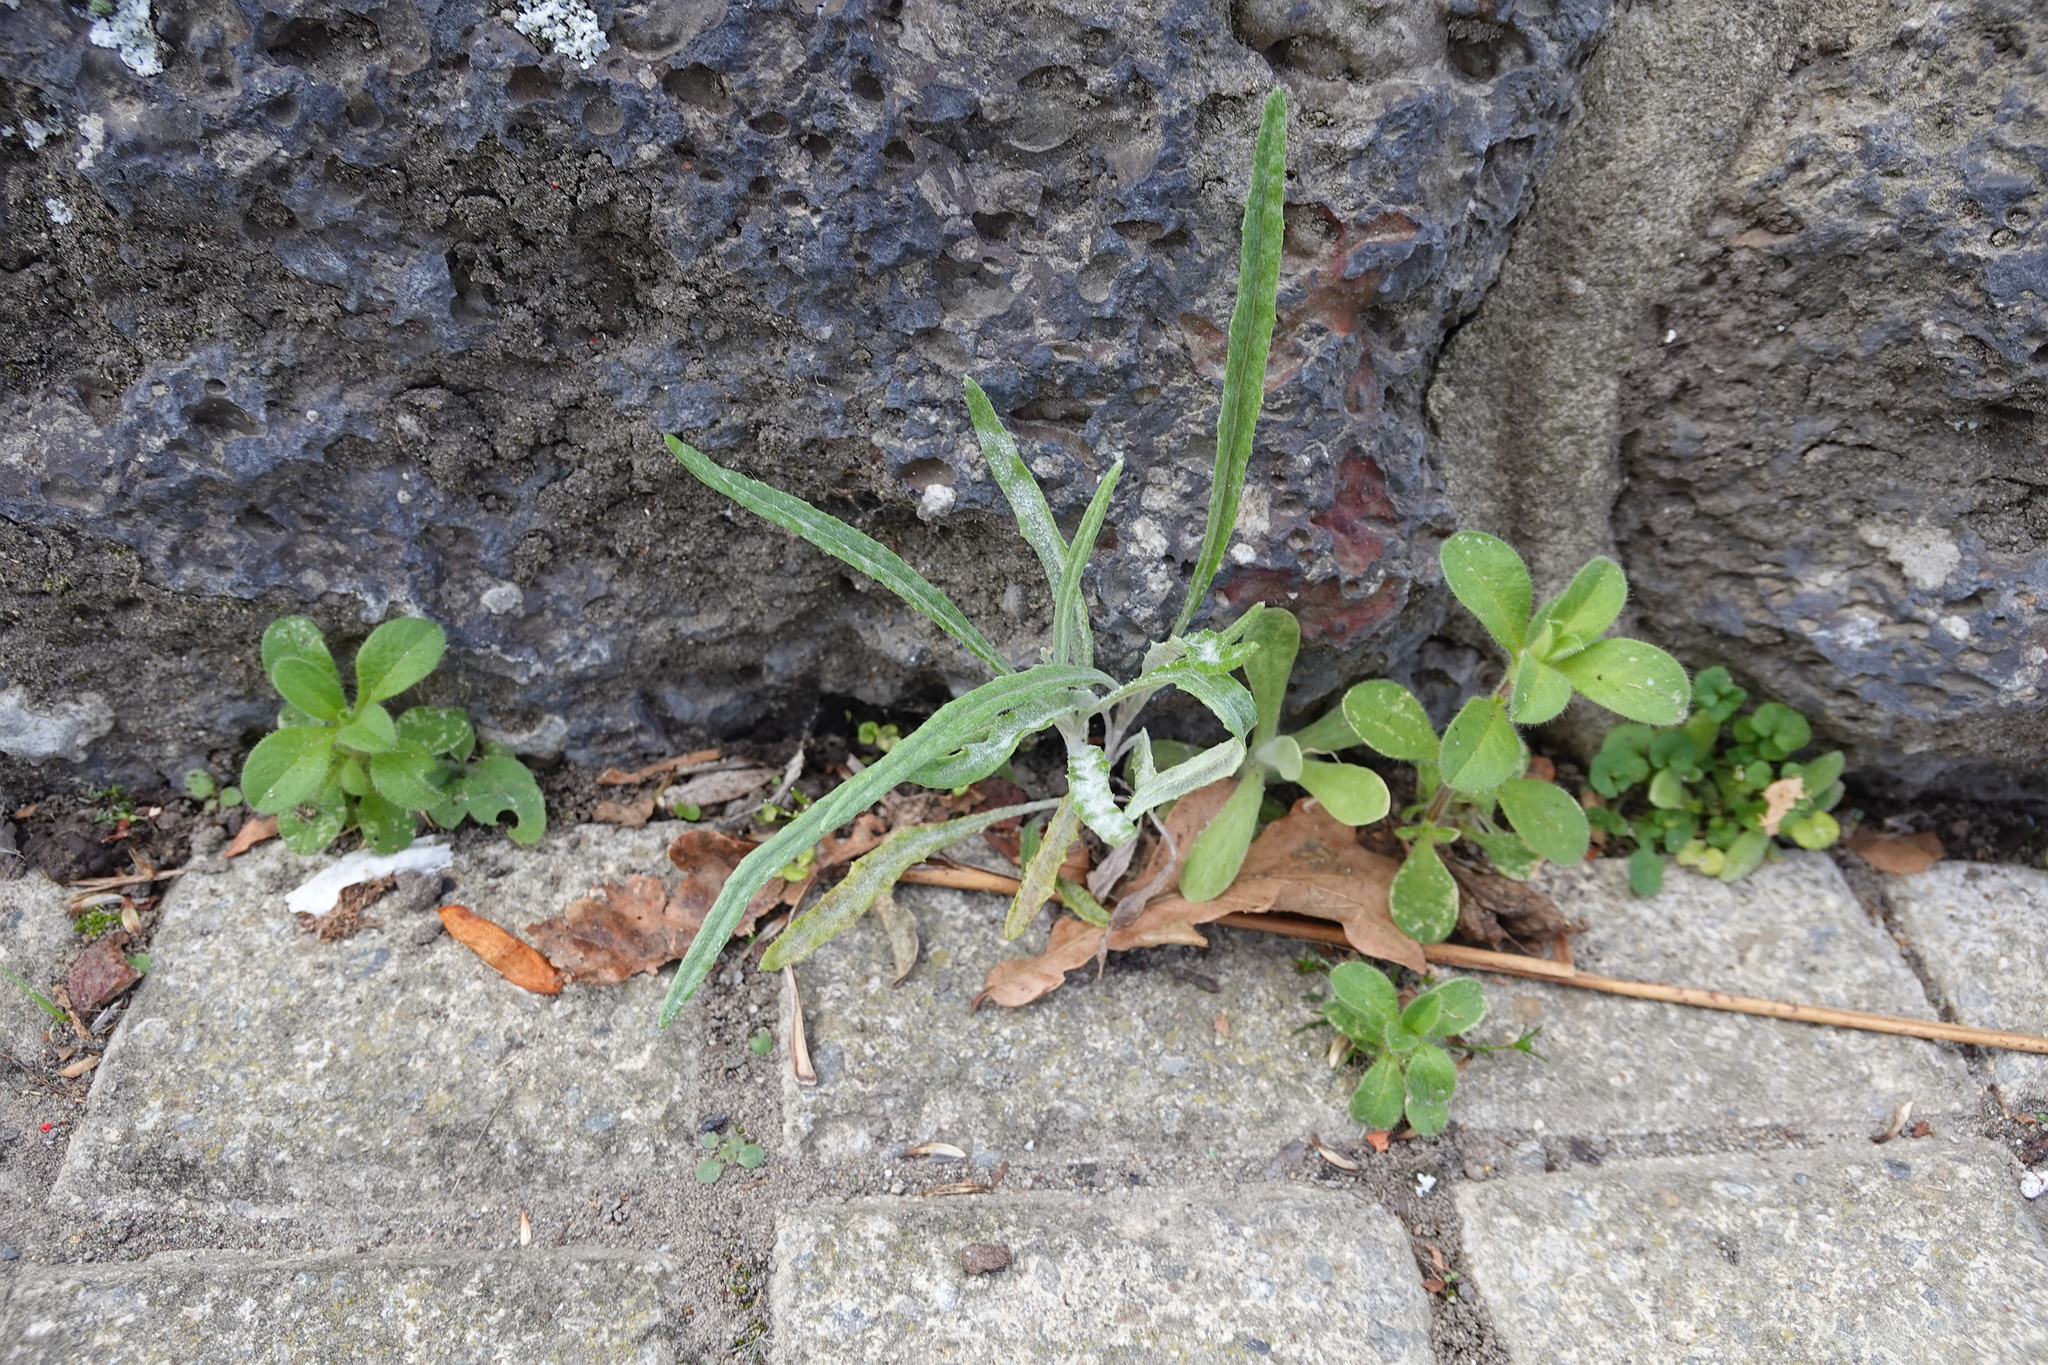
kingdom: Plantae
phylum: Tracheophyta
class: Magnoliopsida
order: Asterales
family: Asteraceae
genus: Senecio
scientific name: Senecio quadridentatus
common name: Cotton fireweed
